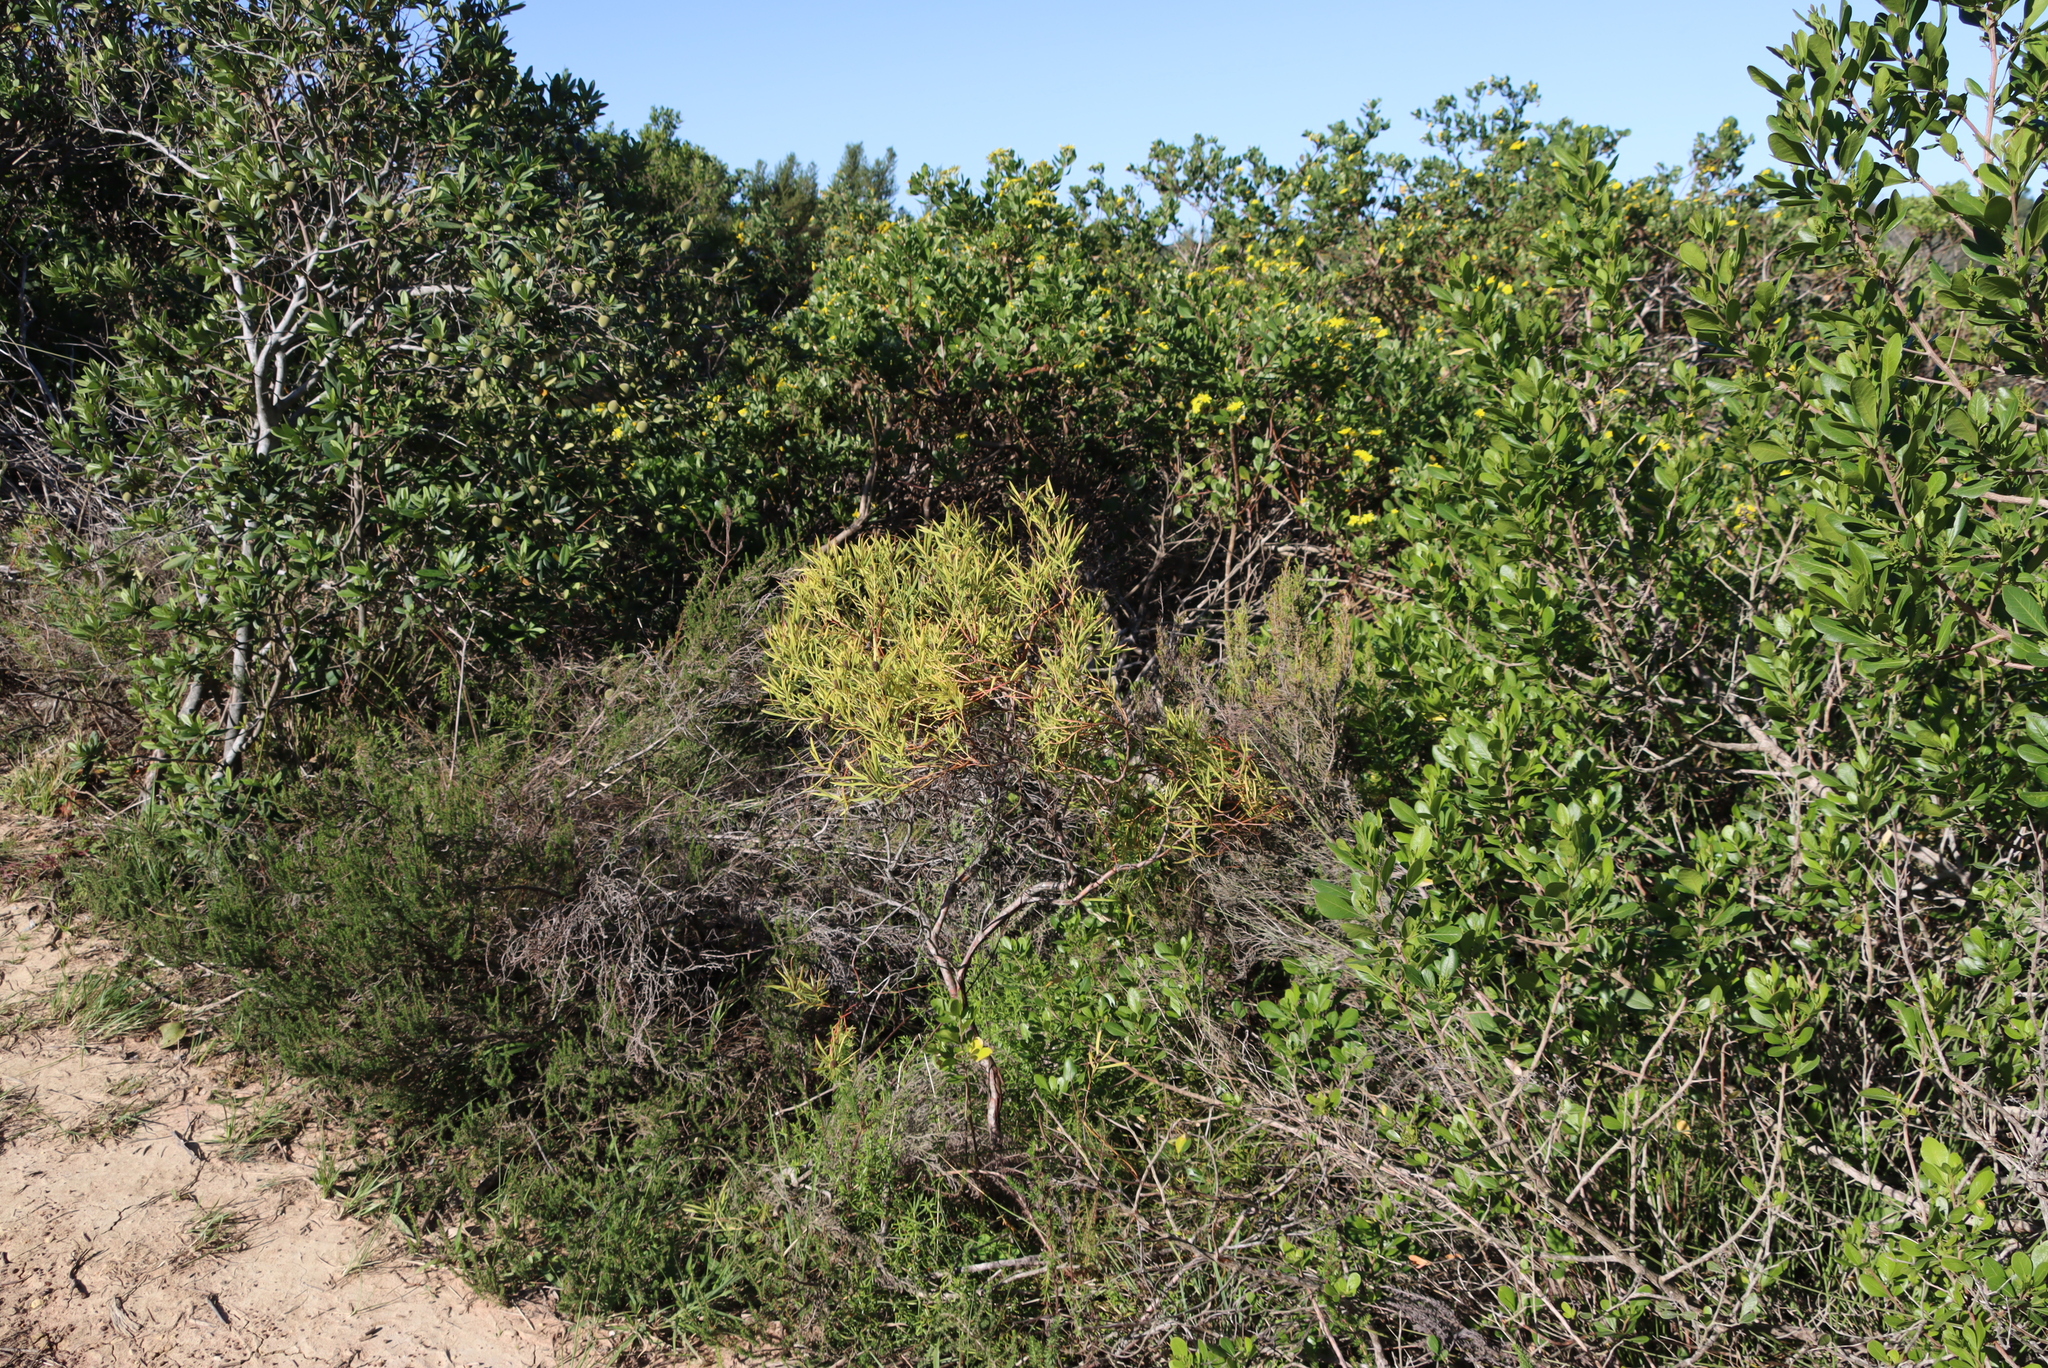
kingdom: Plantae
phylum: Tracheophyta
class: Magnoliopsida
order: Proteales
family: Proteaceae
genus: Leucadendron
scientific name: Leucadendron salignum
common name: Common sunshine conebush
